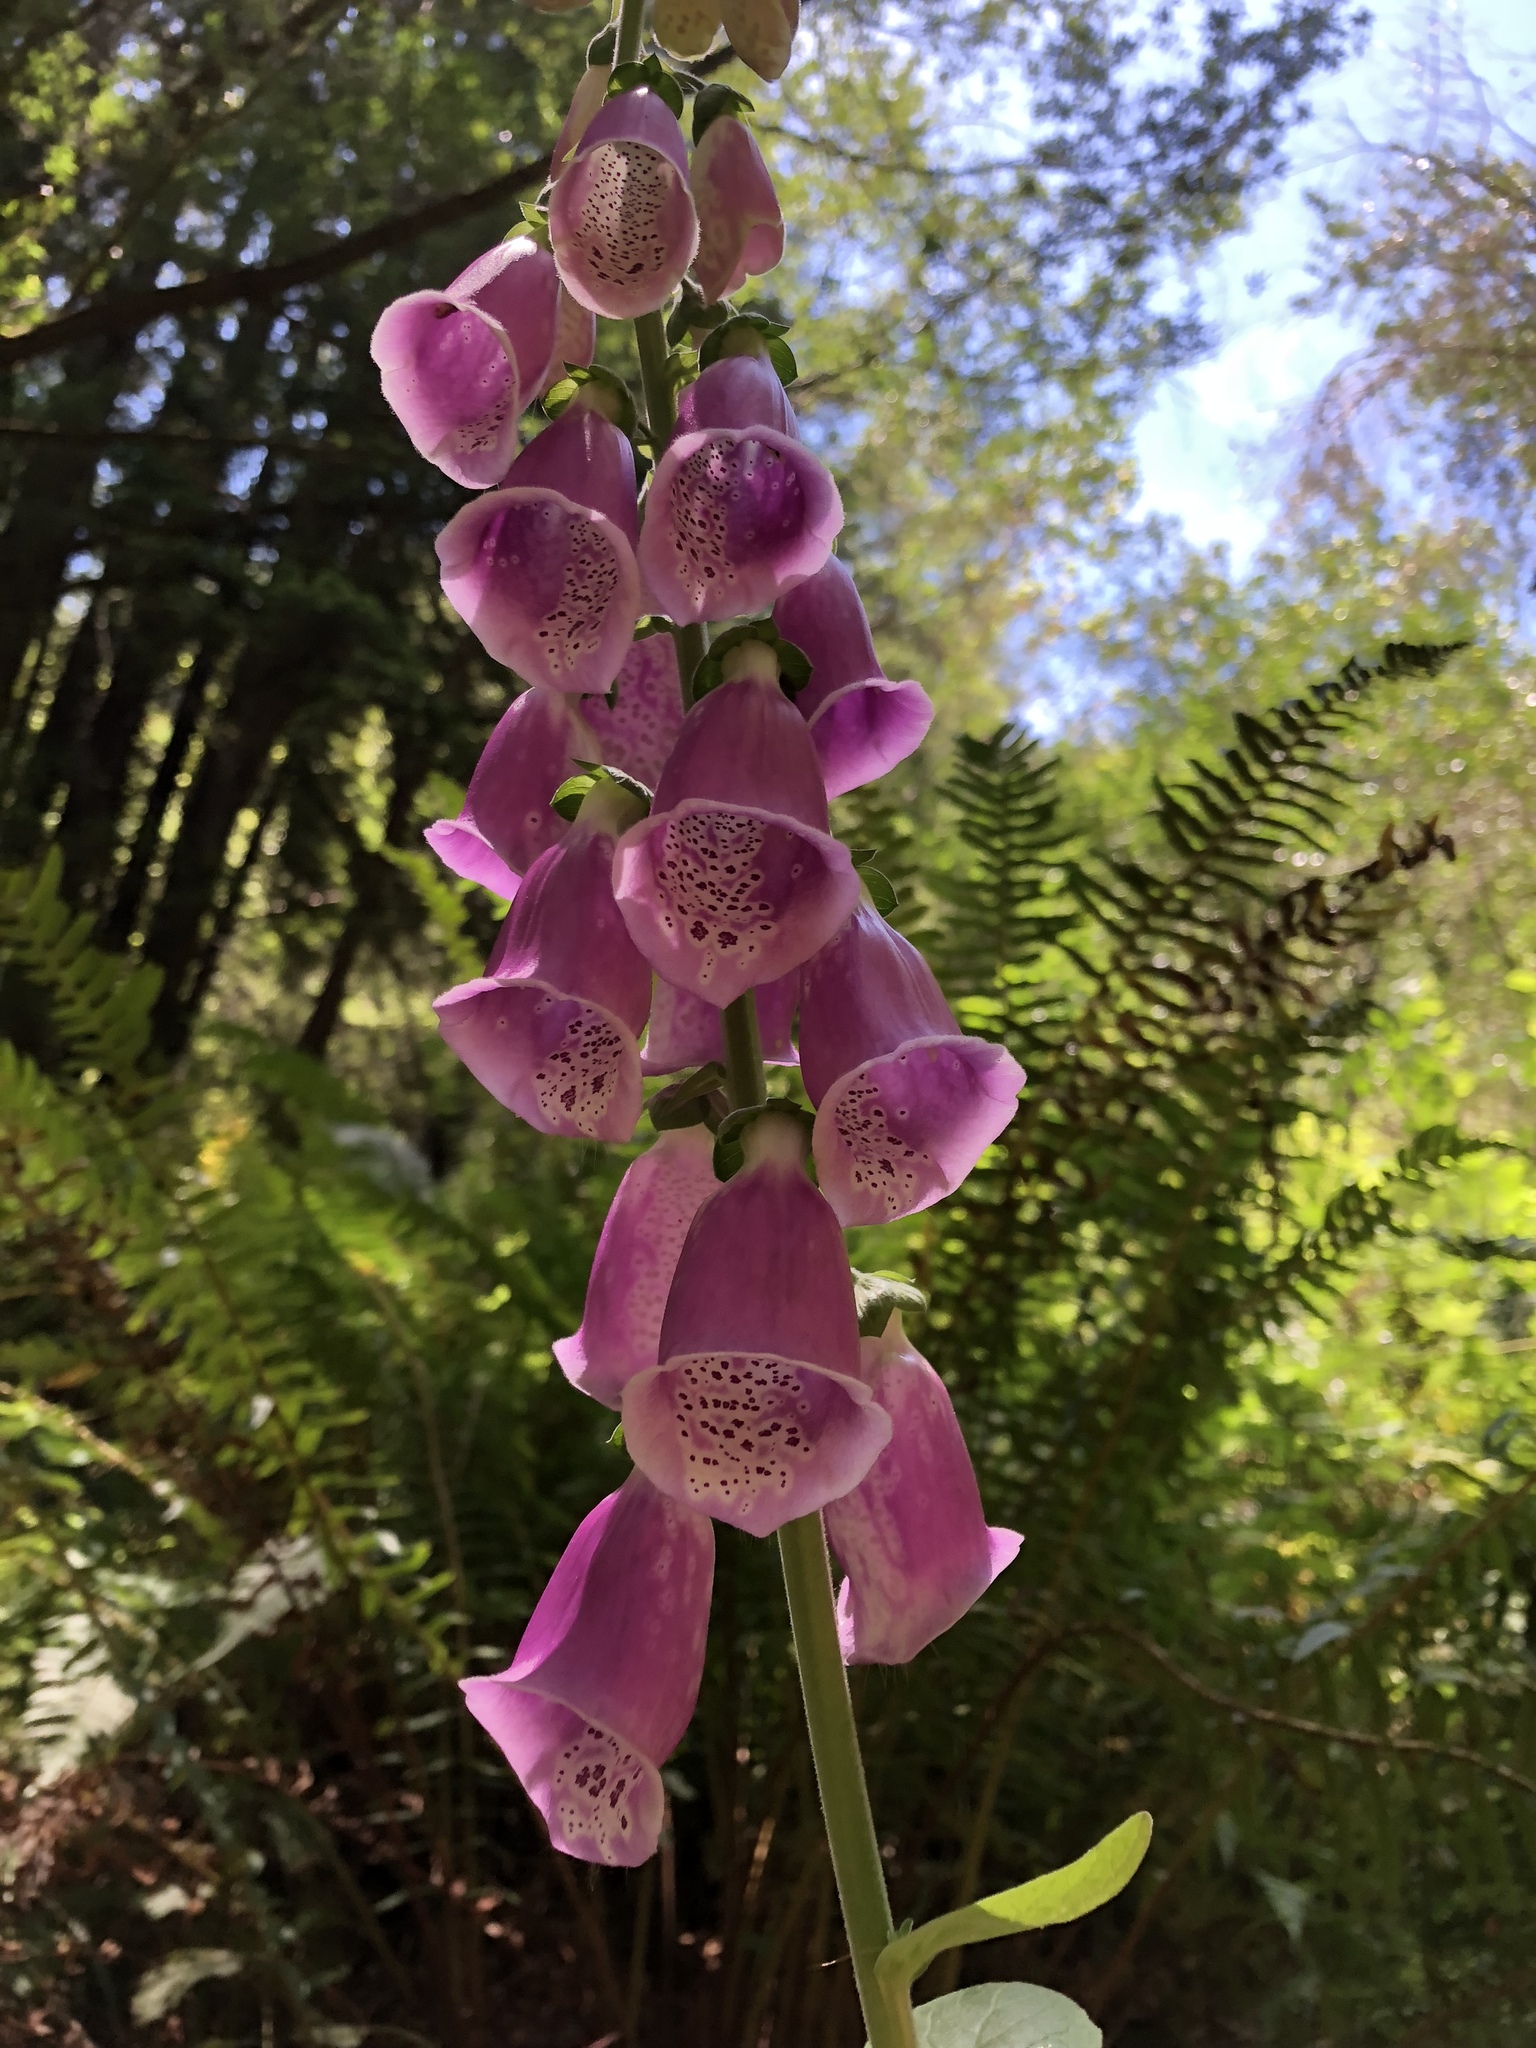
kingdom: Plantae
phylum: Tracheophyta
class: Magnoliopsida
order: Lamiales
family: Plantaginaceae
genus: Digitalis
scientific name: Digitalis purpurea
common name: Foxglove
